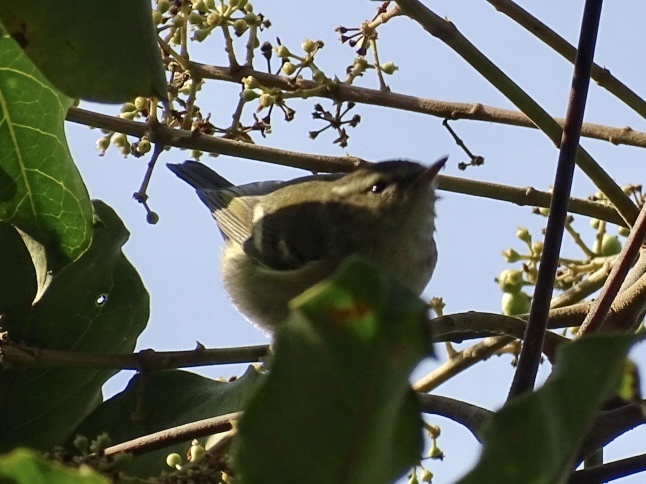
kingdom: Animalia
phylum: Chordata
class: Aves
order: Passeriformes
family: Phylloscopidae
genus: Phylloscopus
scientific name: Phylloscopus inornatus
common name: Yellow-browed warbler
